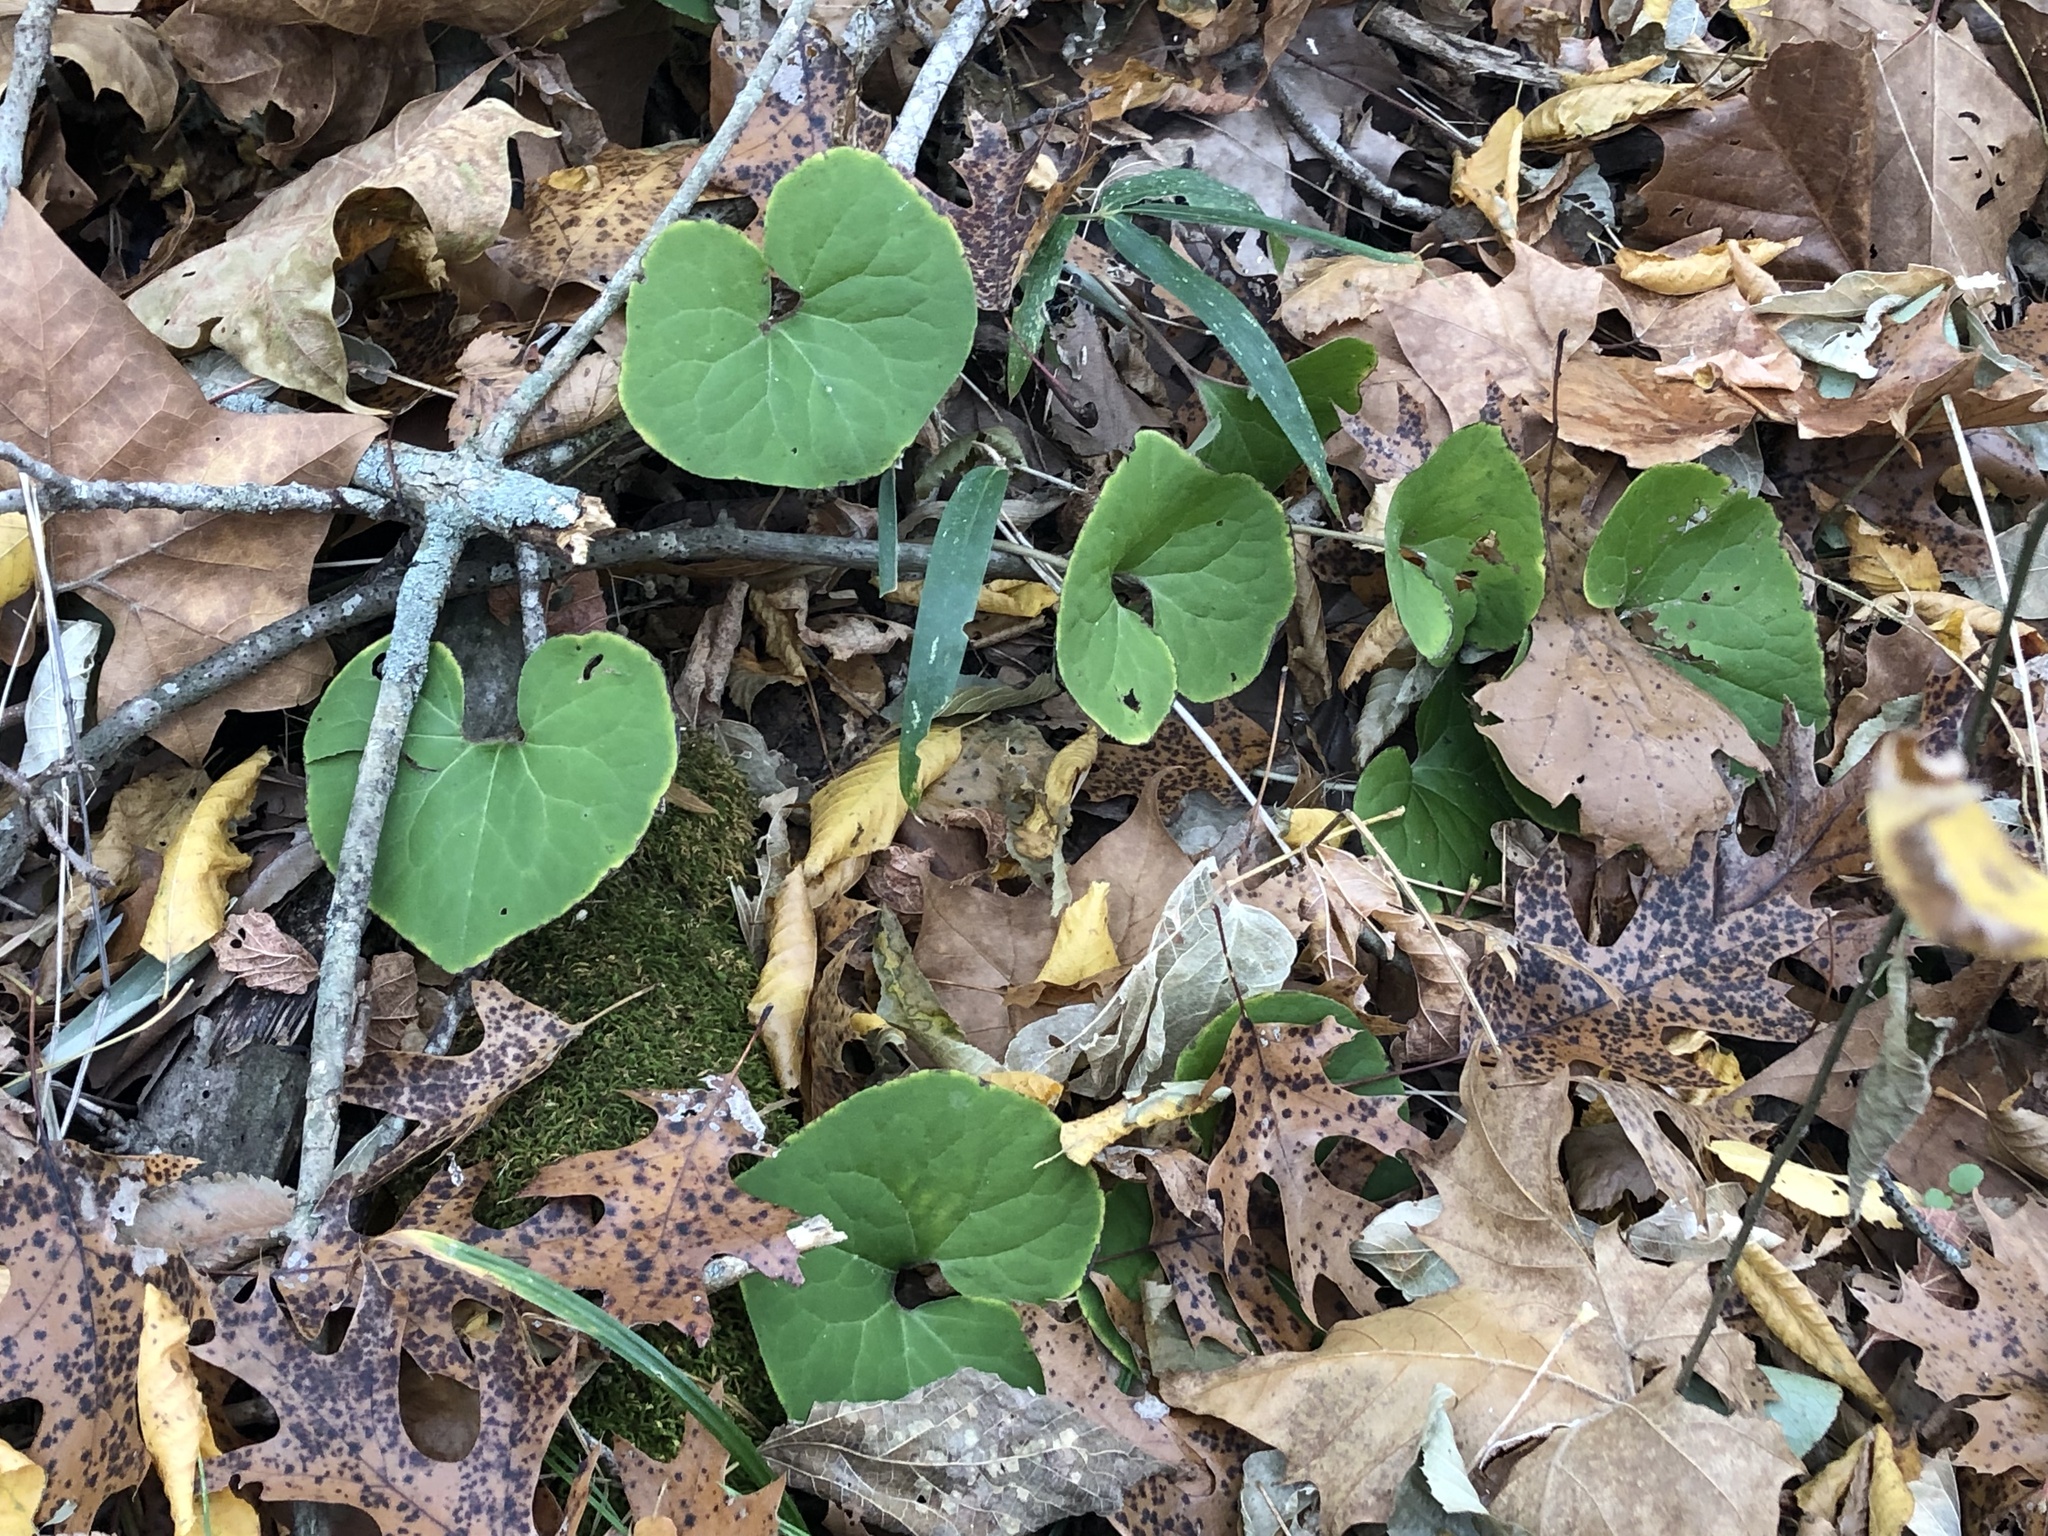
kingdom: Plantae
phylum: Tracheophyta
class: Magnoliopsida
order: Piperales
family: Aristolochiaceae
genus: Asarum
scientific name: Asarum canadense
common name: Wild ginger
